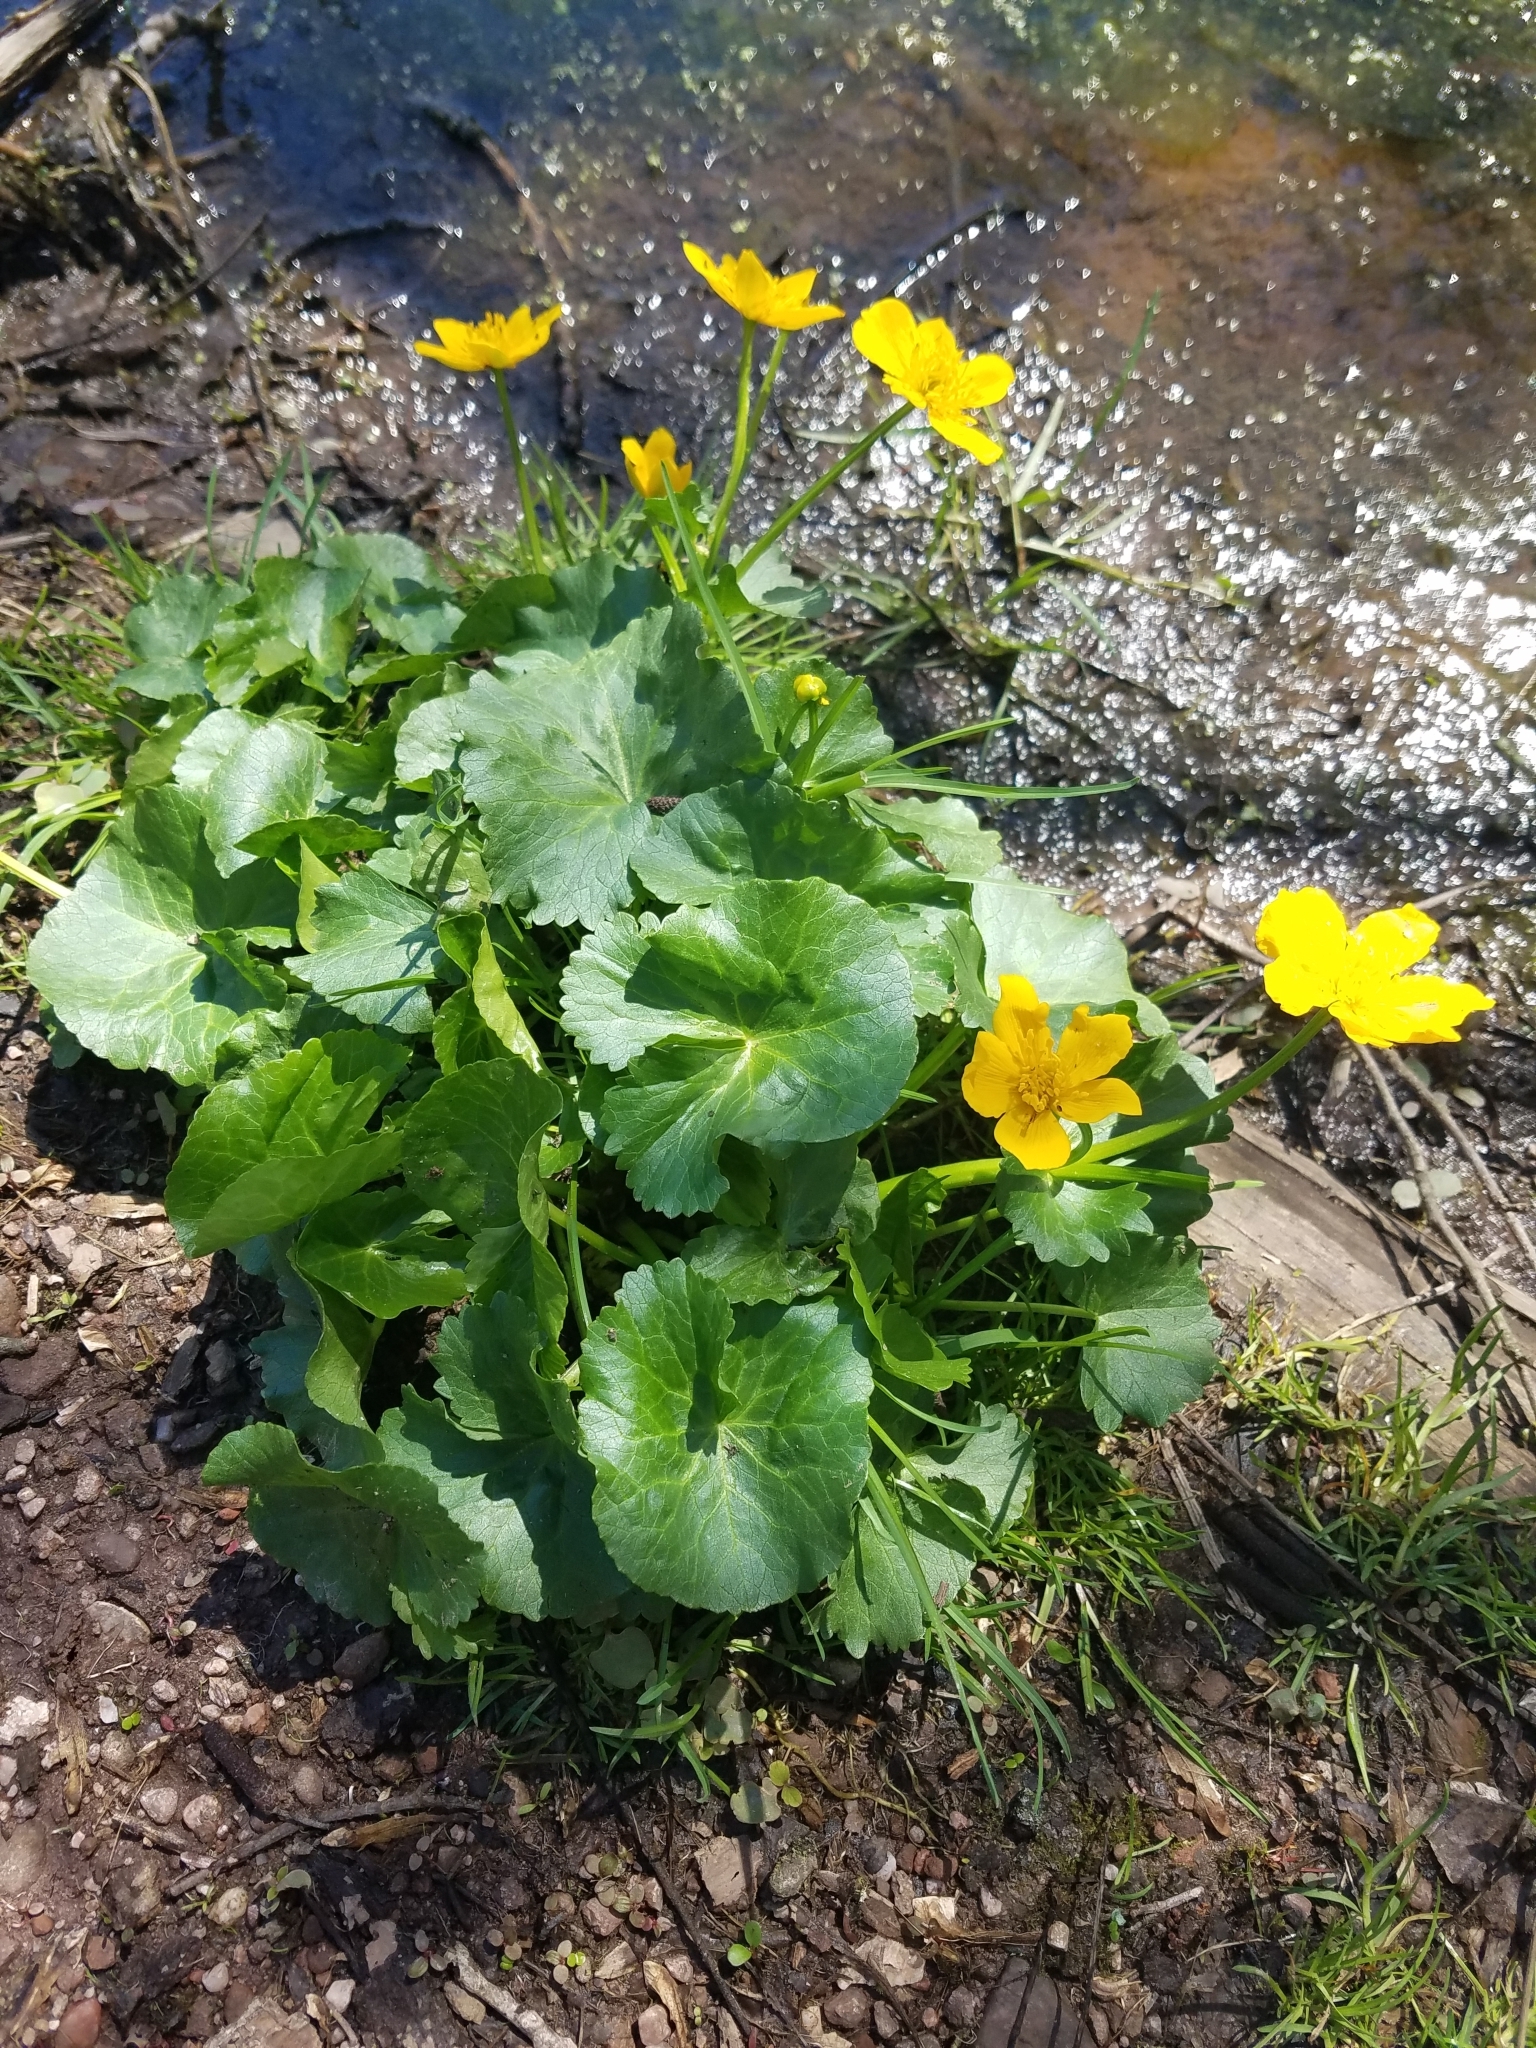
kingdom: Plantae
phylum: Tracheophyta
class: Magnoliopsida
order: Ranunculales
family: Ranunculaceae
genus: Caltha
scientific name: Caltha palustris
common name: Marsh marigold
